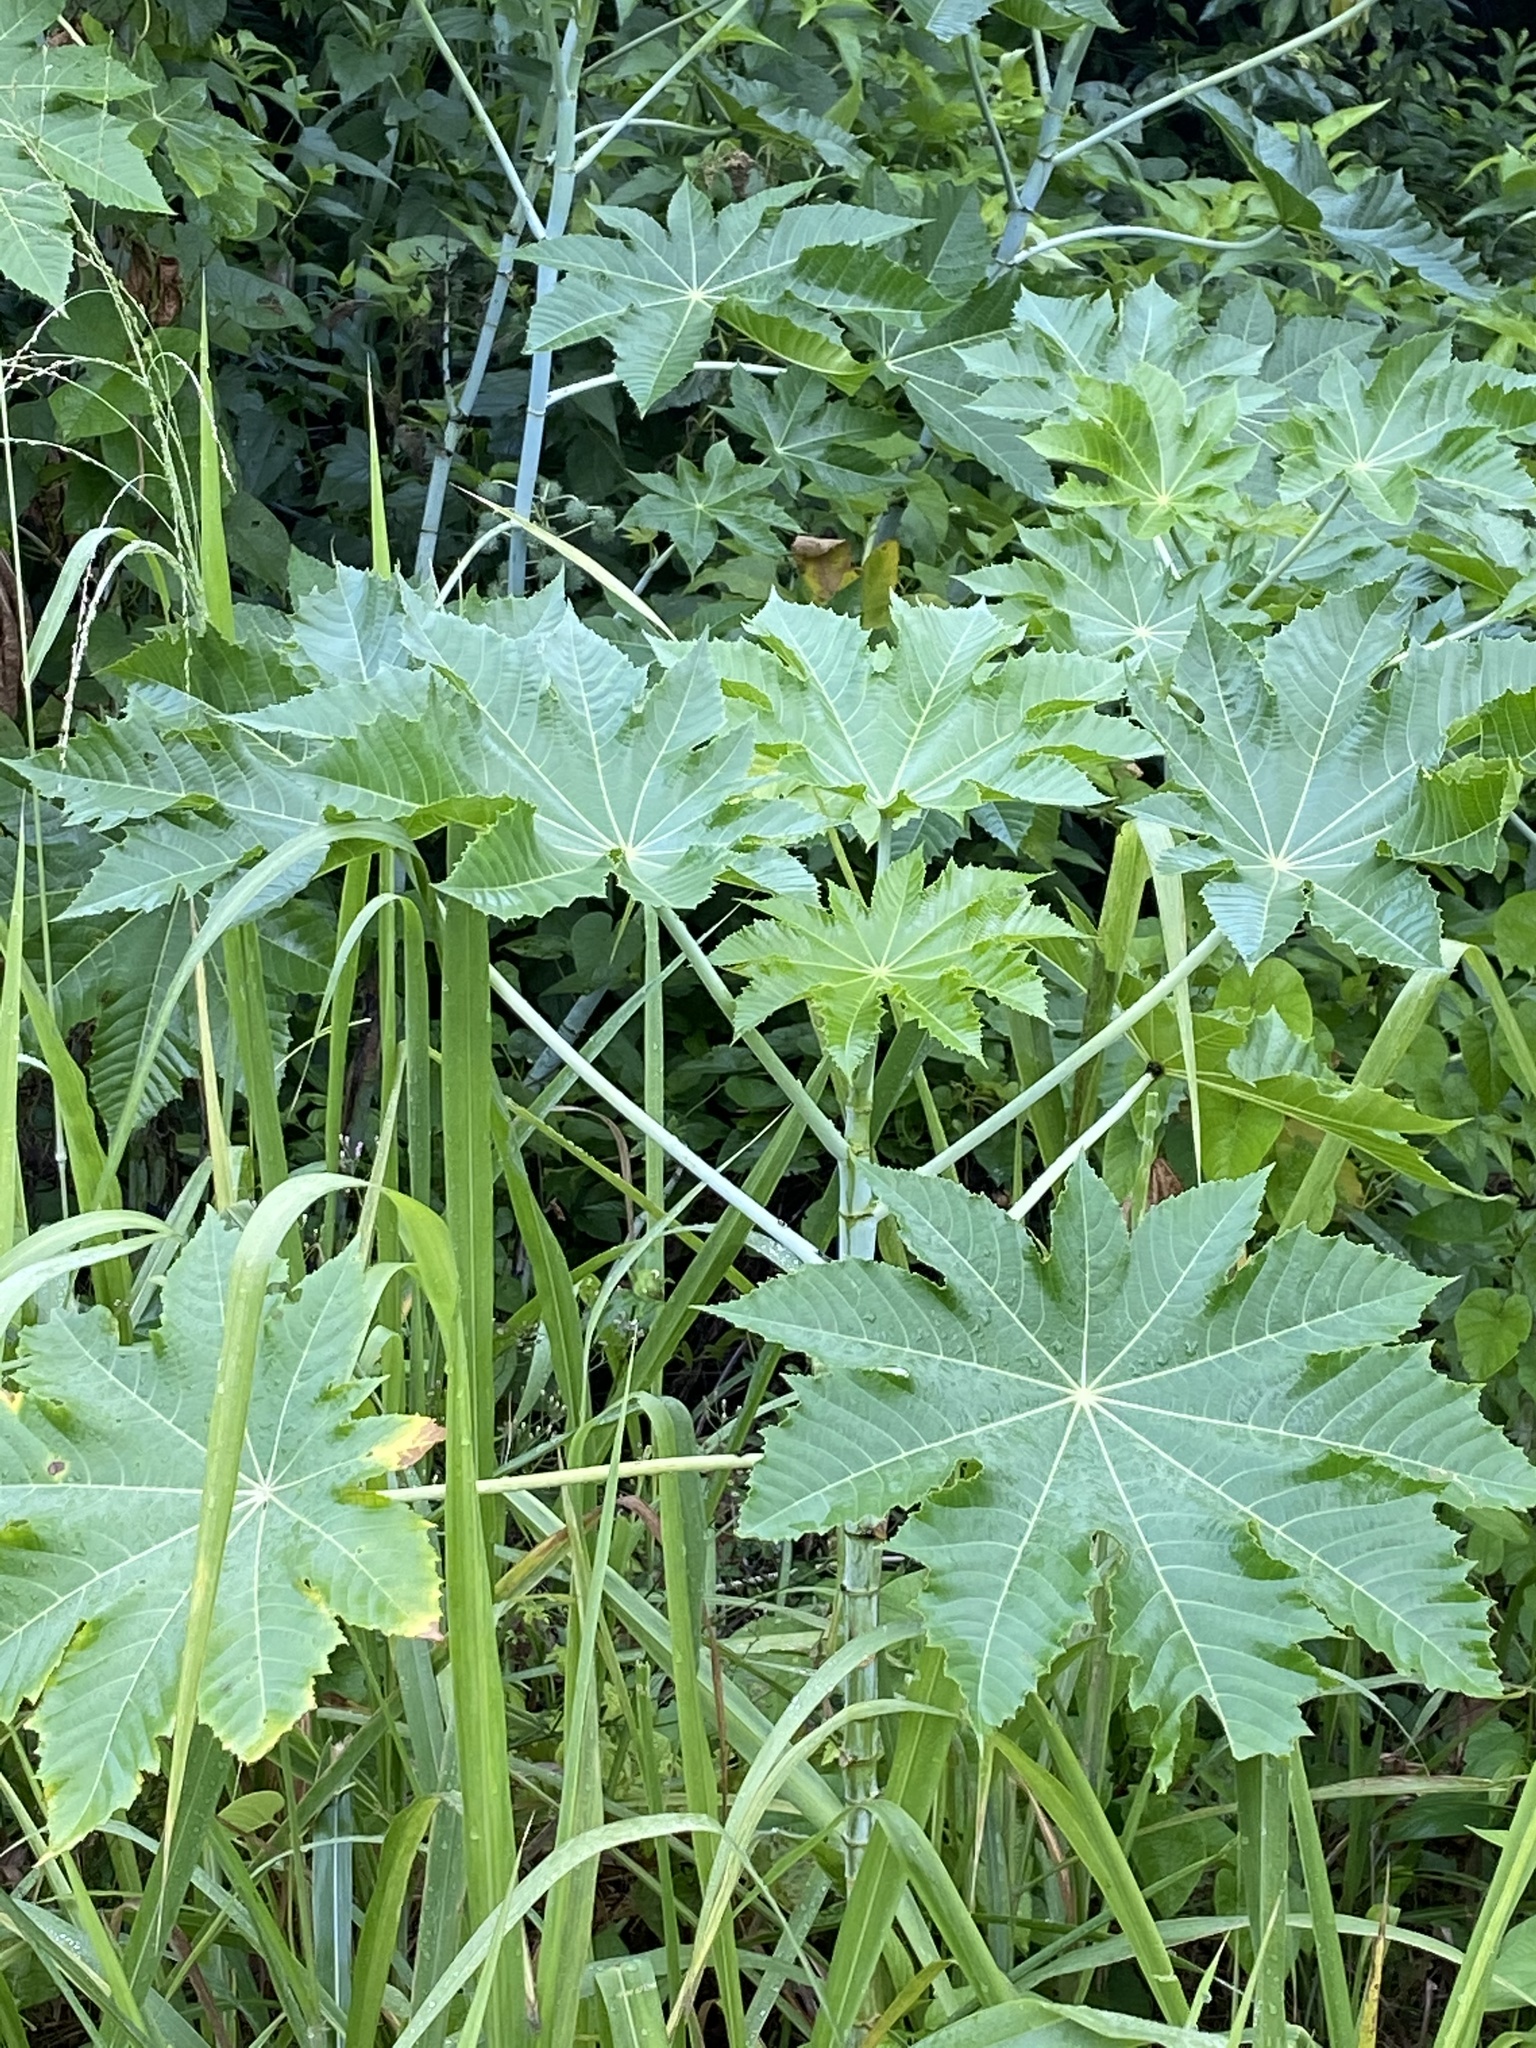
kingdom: Plantae
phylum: Tracheophyta
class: Magnoliopsida
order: Malpighiales
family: Euphorbiaceae
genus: Ricinus
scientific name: Ricinus communis
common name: Castor-oil-plant
